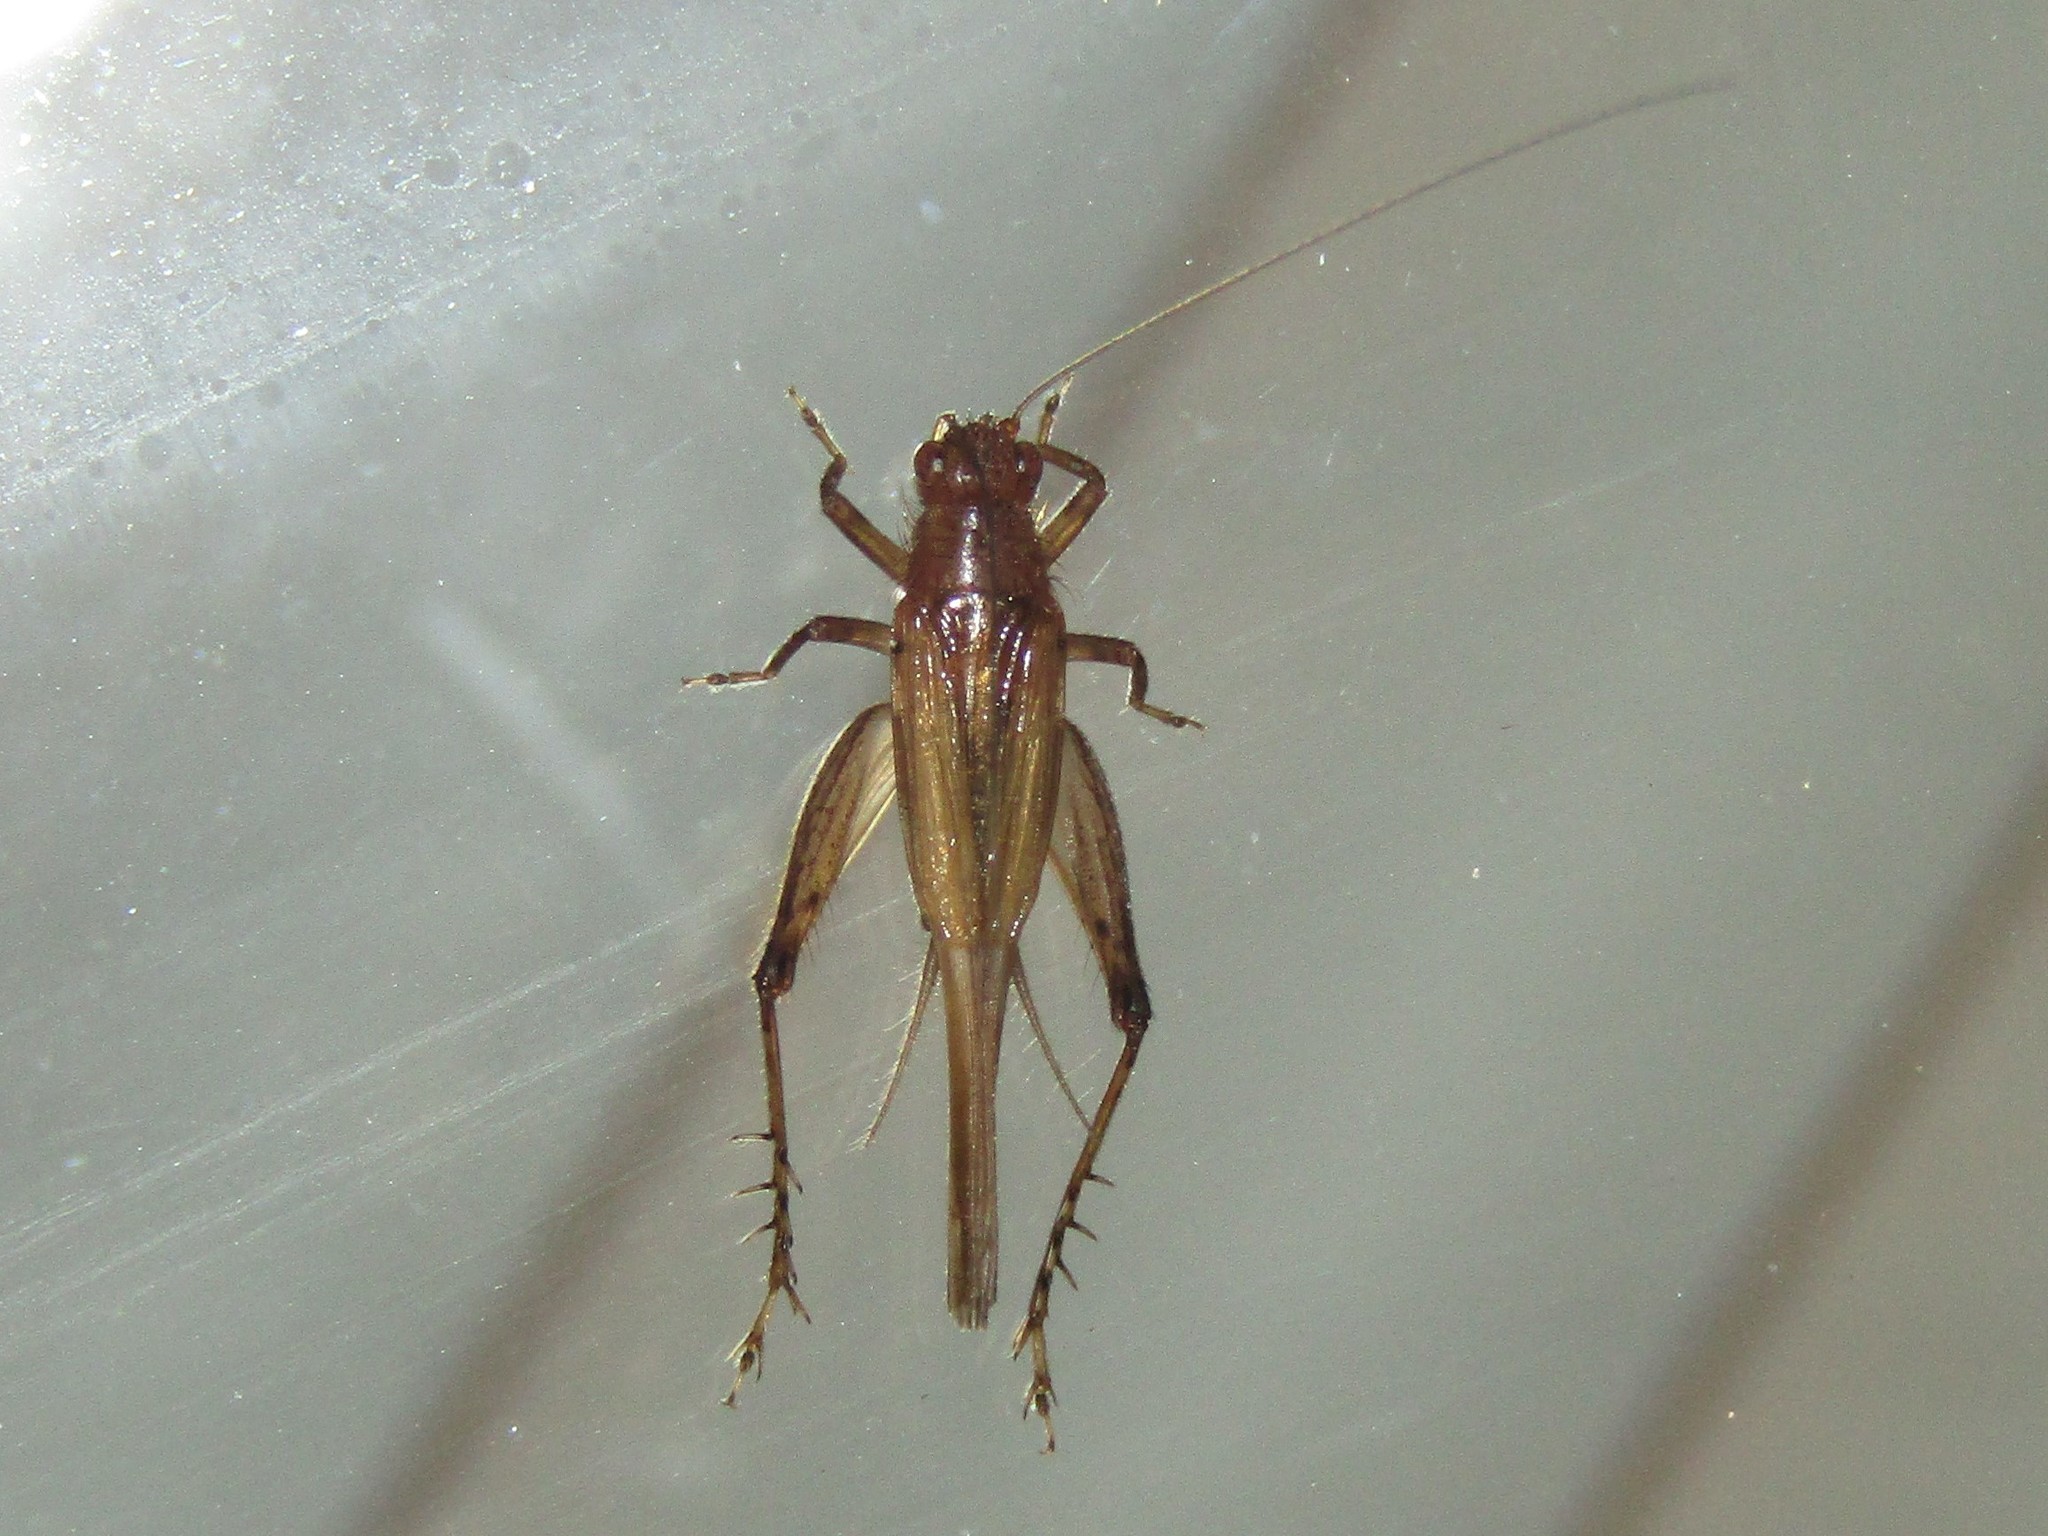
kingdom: Animalia
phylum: Arthropoda
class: Insecta
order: Orthoptera
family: Trigonidiidae
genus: Anaxipha
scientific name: Anaxipha vernalis
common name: Spring trig
